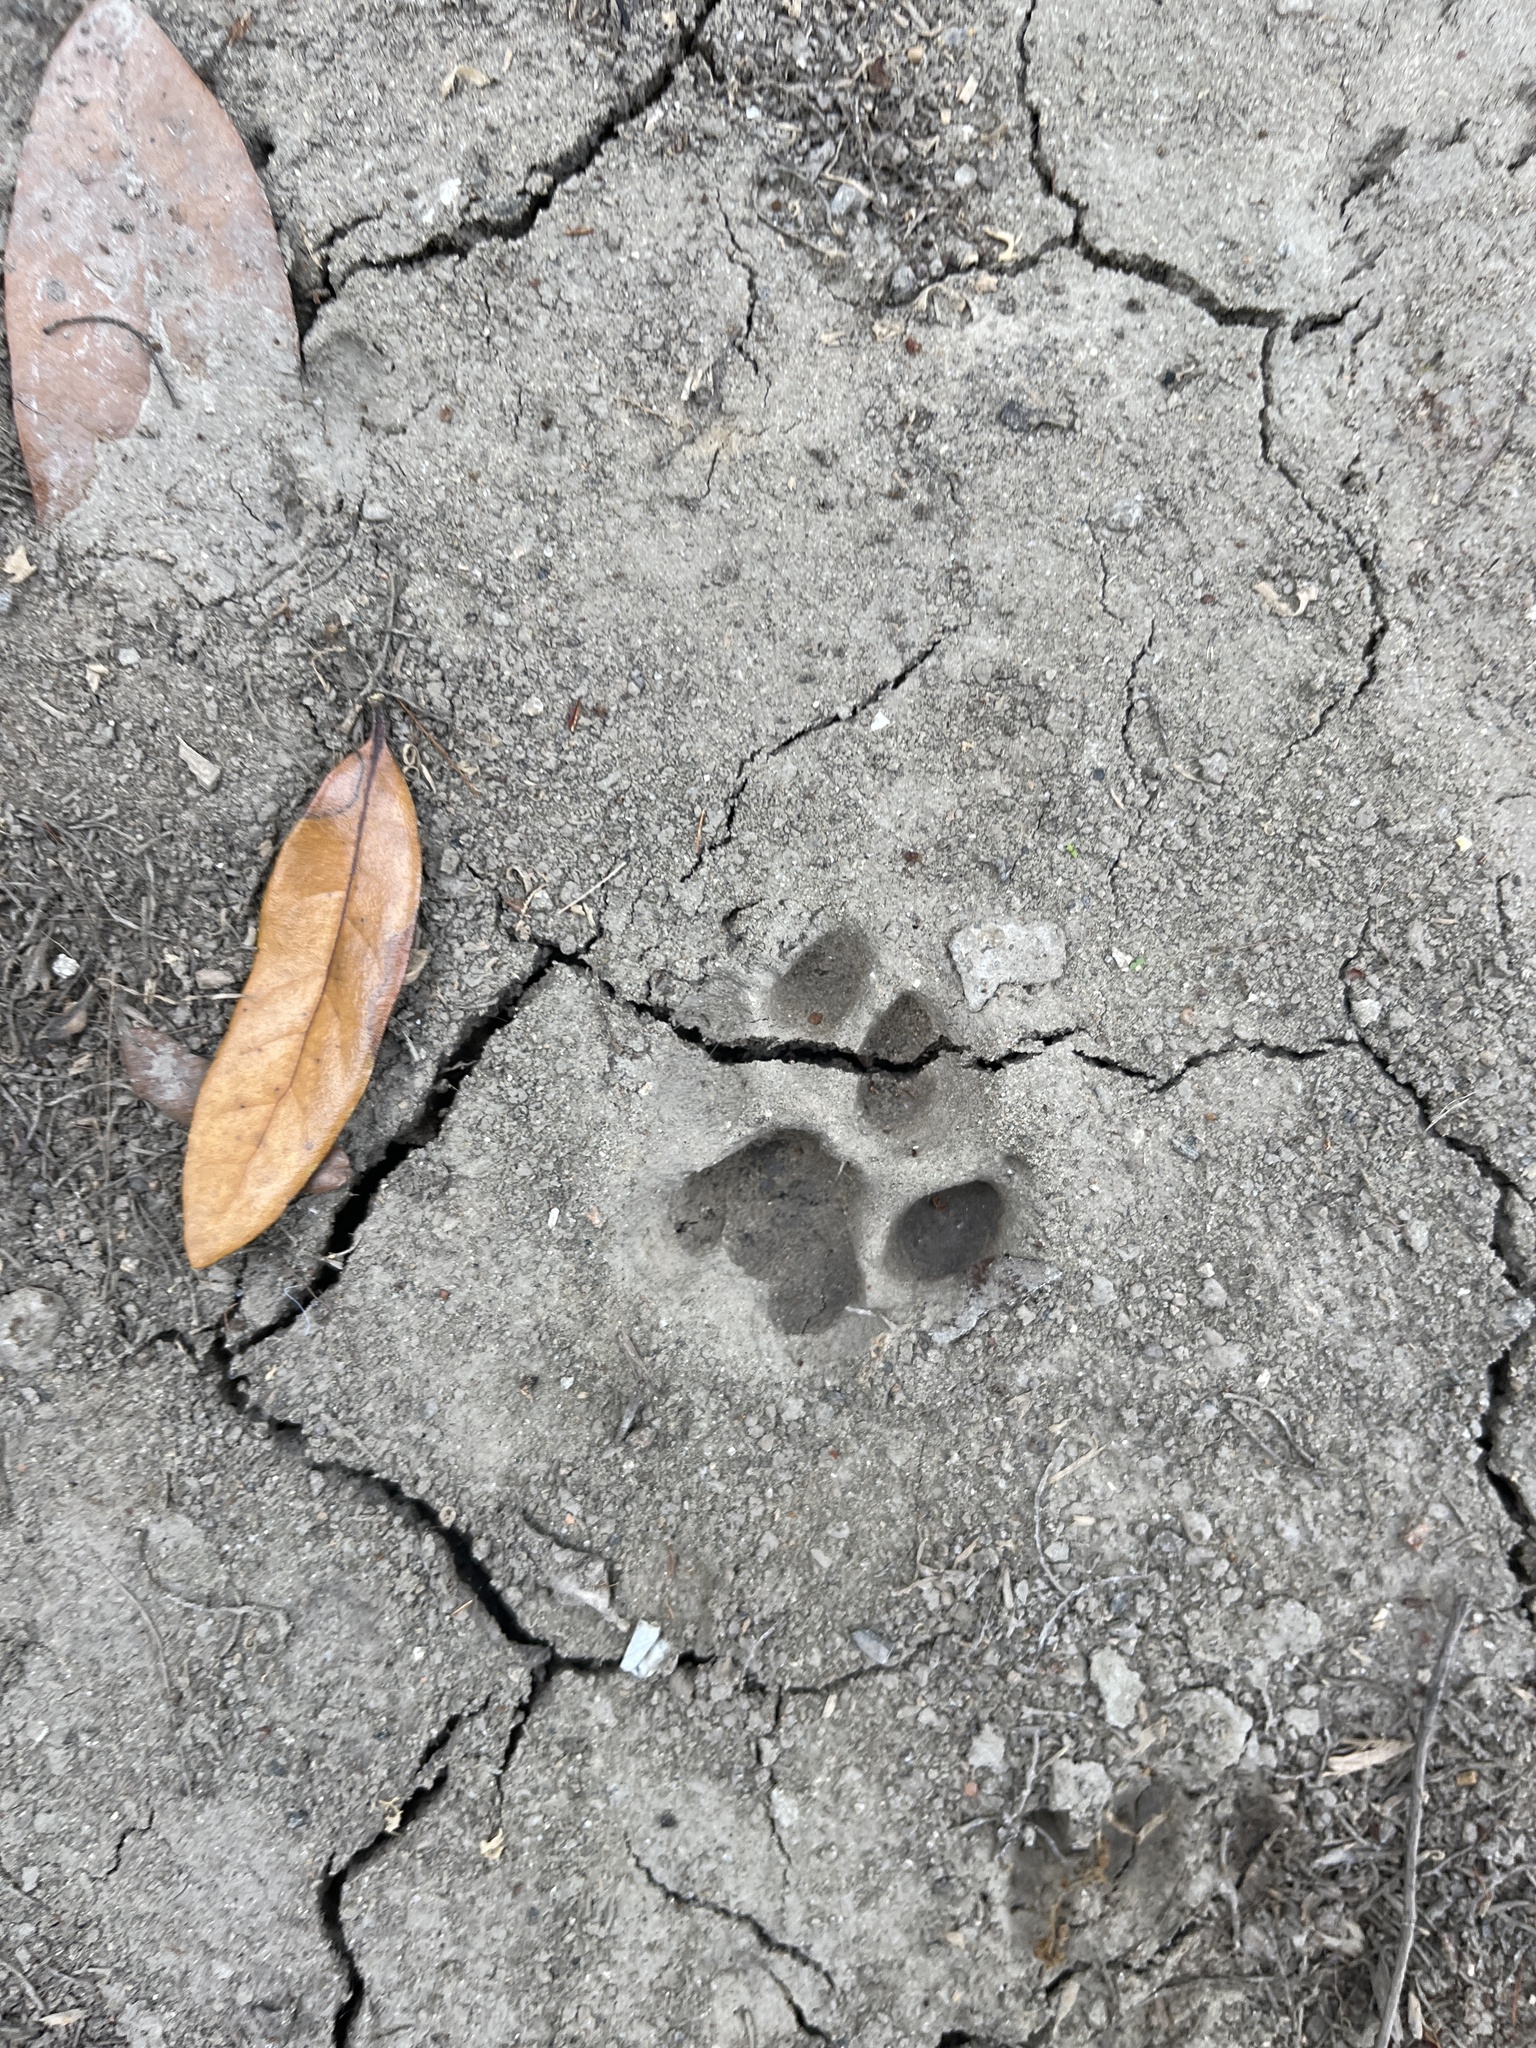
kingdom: Animalia
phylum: Chordata
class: Mammalia
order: Carnivora
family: Felidae
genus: Felis
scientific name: Felis catus
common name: Domestic cat
